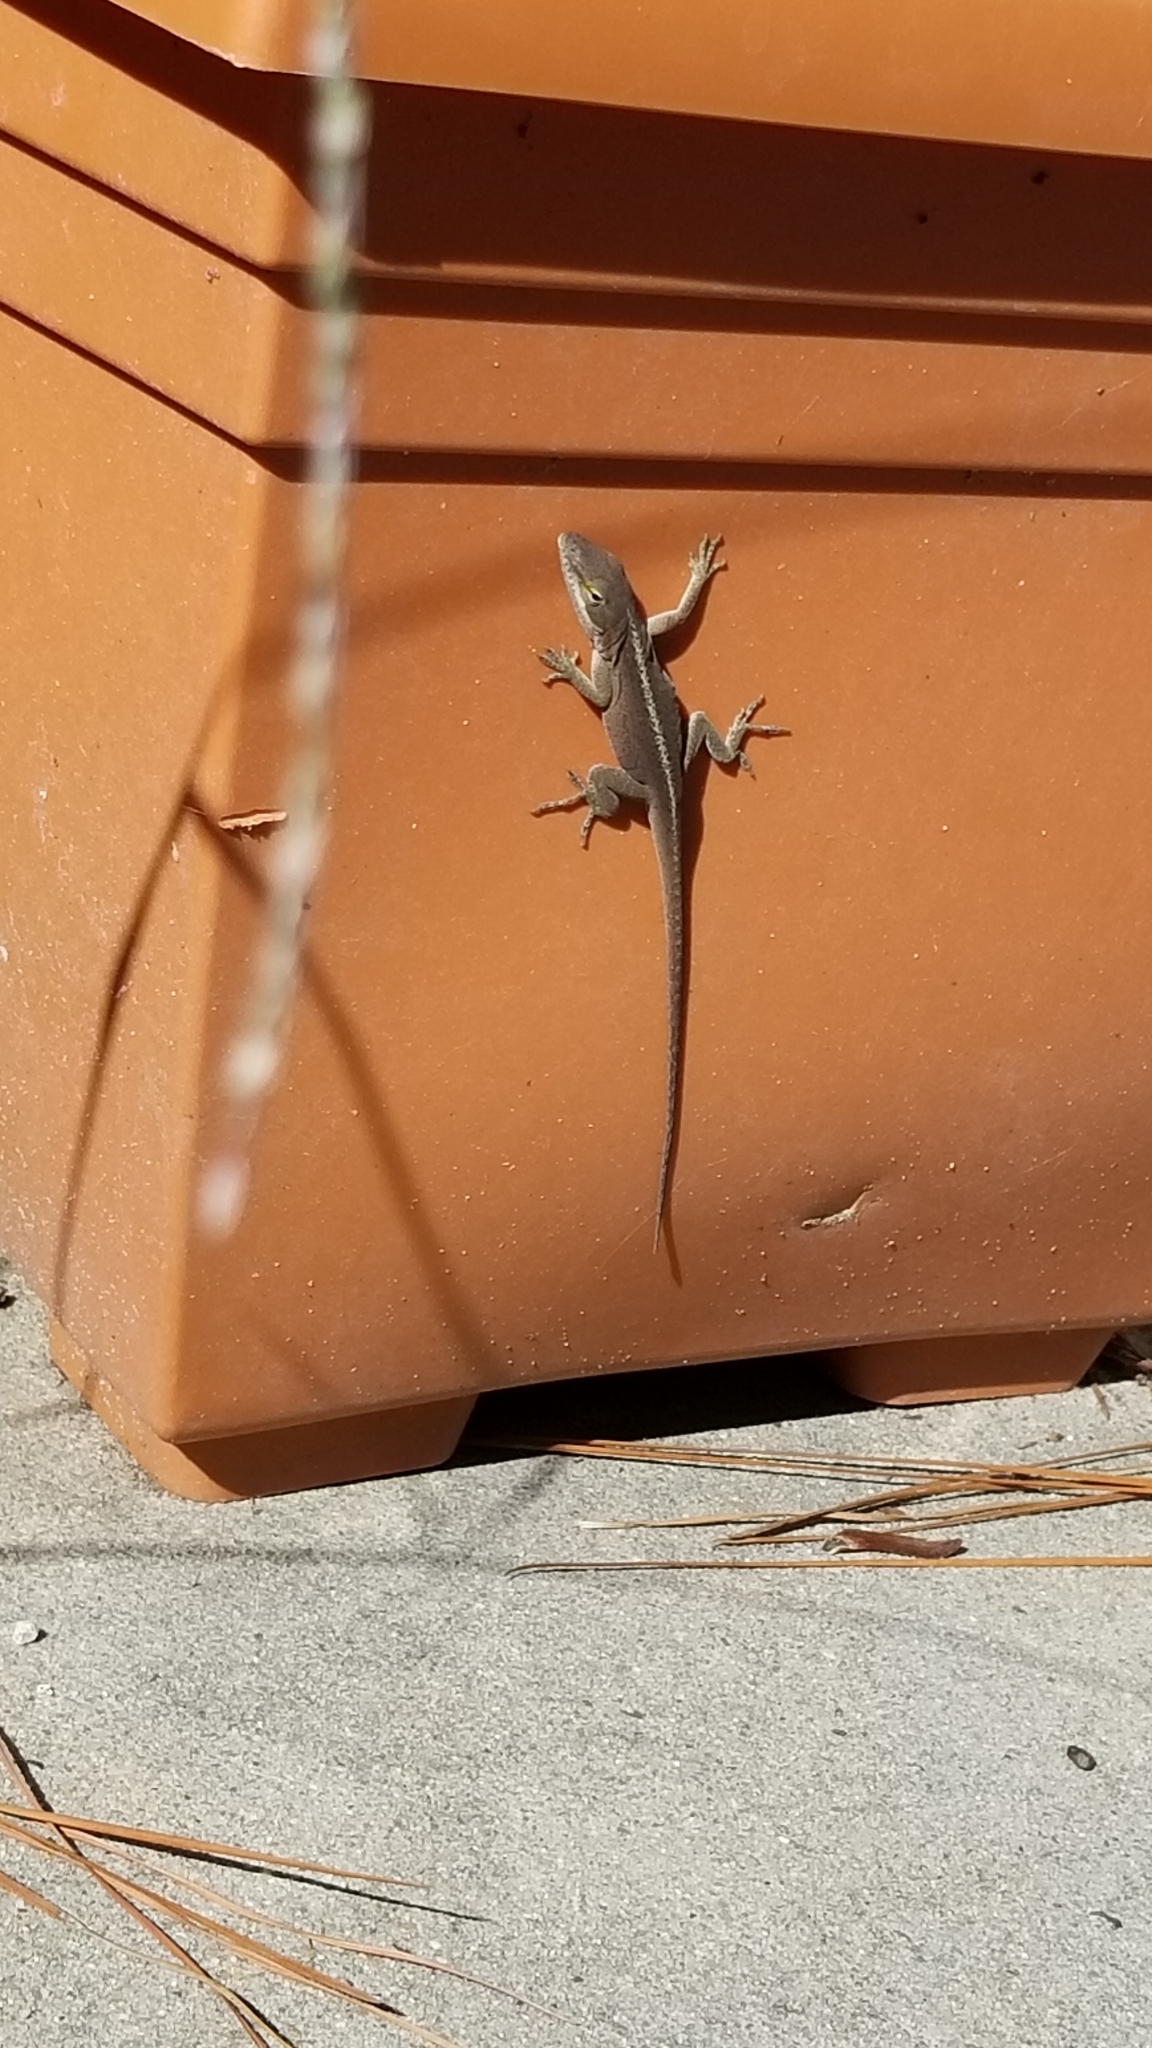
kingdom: Animalia
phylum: Chordata
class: Squamata
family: Dactyloidae
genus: Anolis
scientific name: Anolis carolinensis
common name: Green anole
